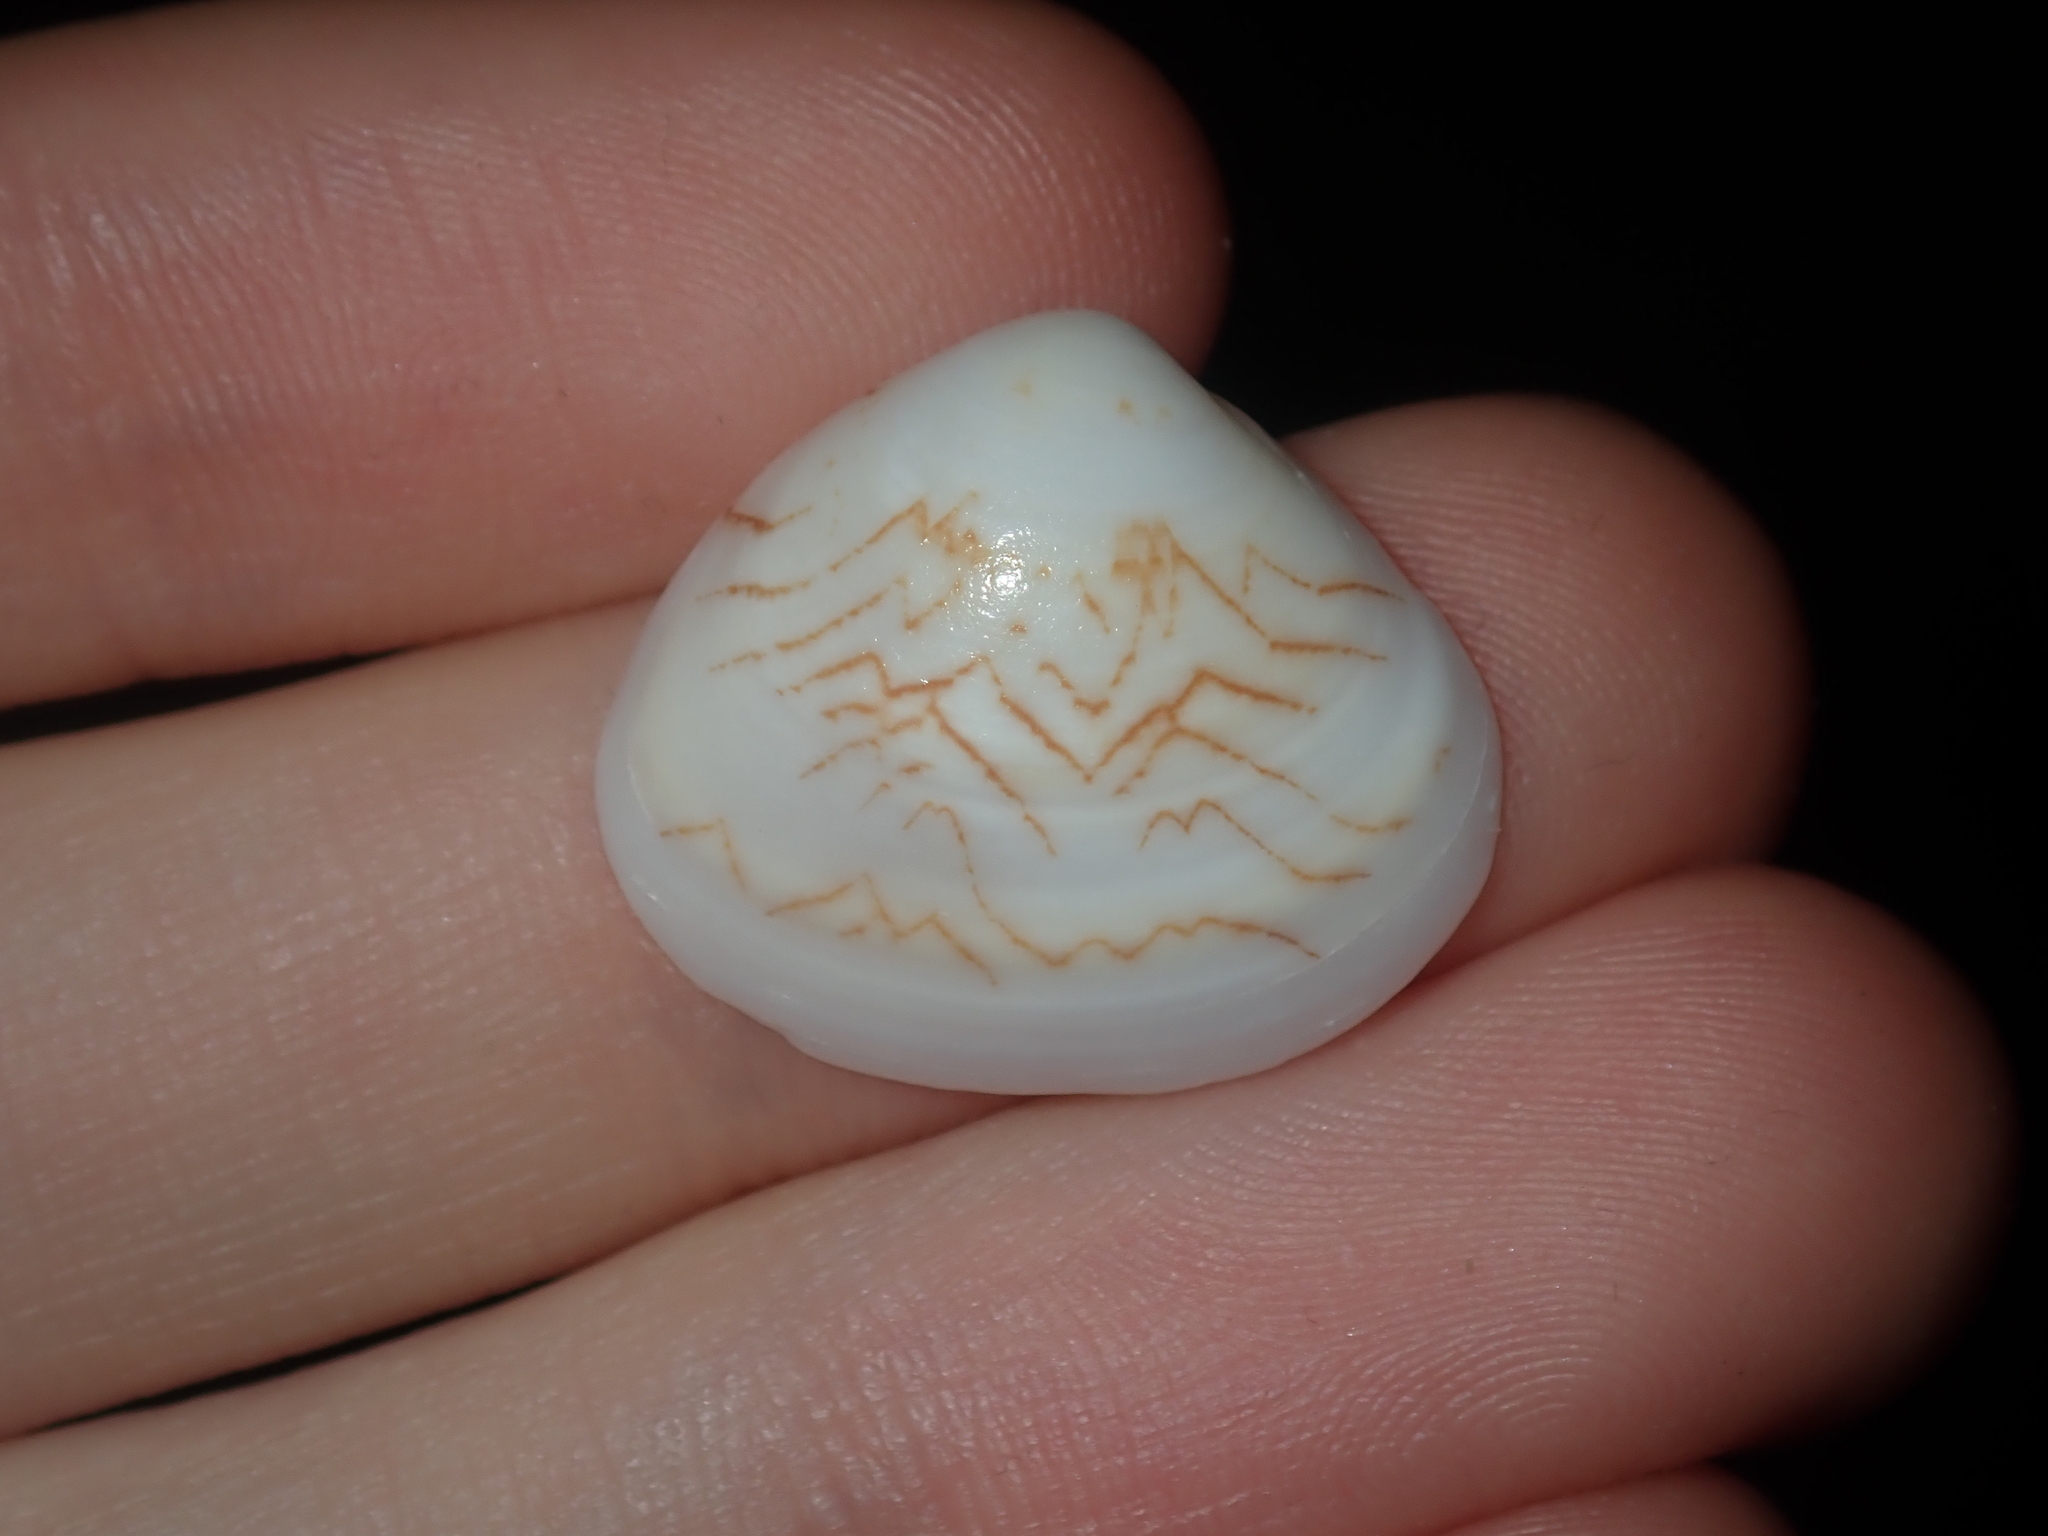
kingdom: Animalia
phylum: Mollusca
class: Bivalvia
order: Venerida
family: Veneridae
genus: Gomphina
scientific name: Gomphina undulosa
